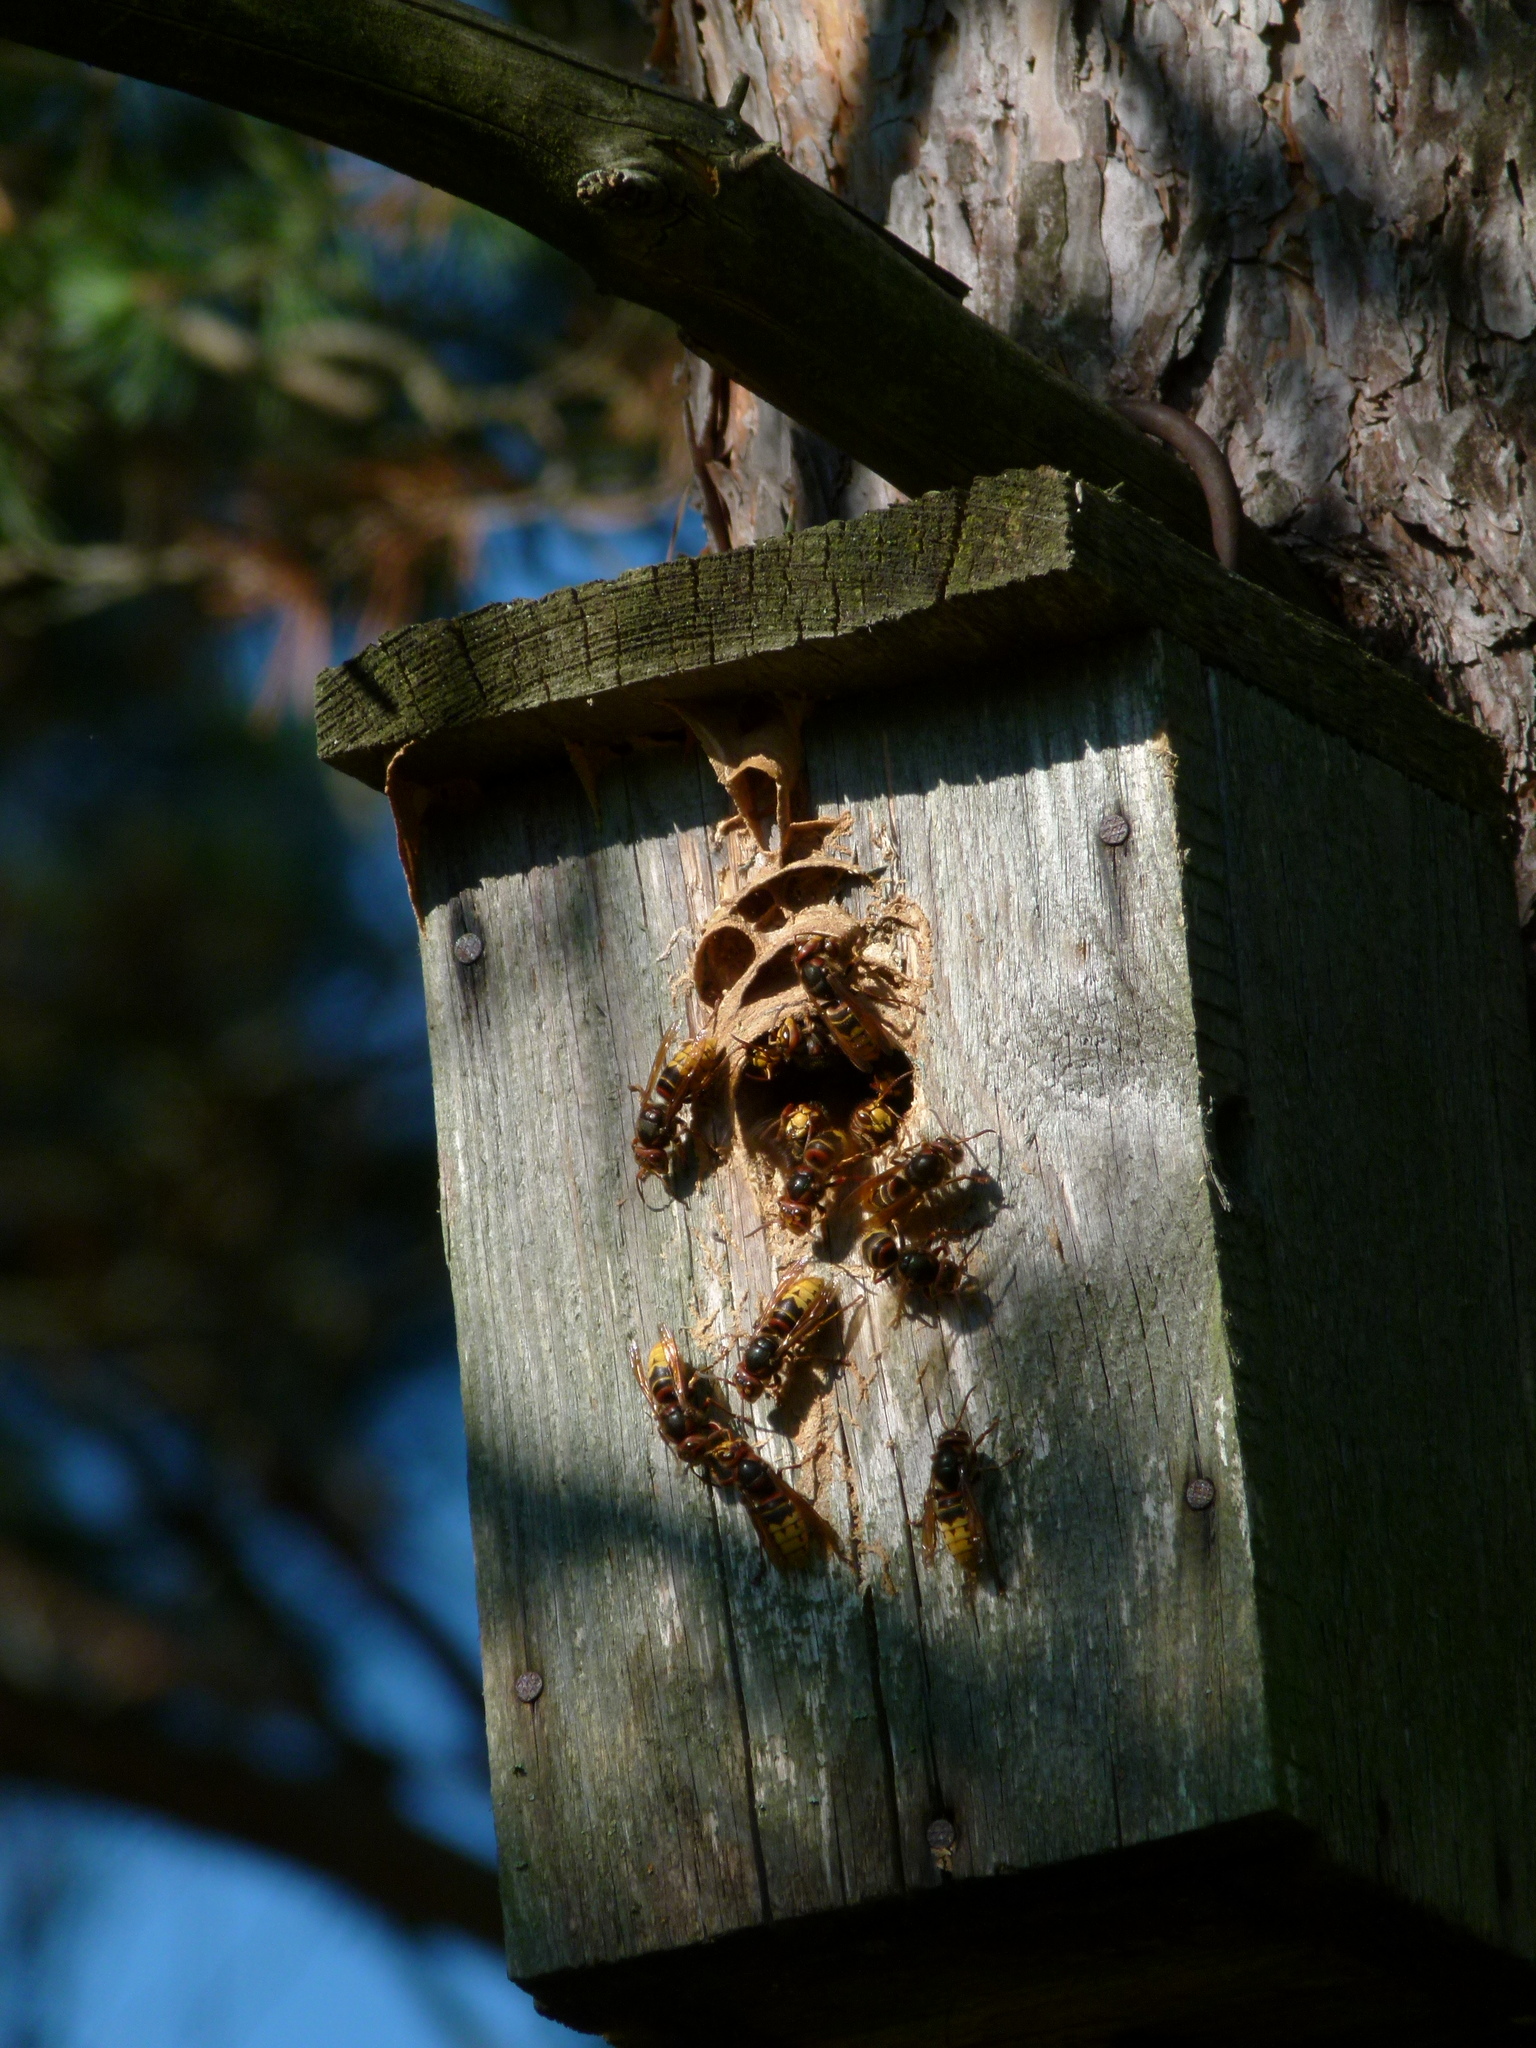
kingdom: Animalia
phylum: Arthropoda
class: Insecta
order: Hymenoptera
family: Vespidae
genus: Vespa
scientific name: Vespa crabro
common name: Hornet
